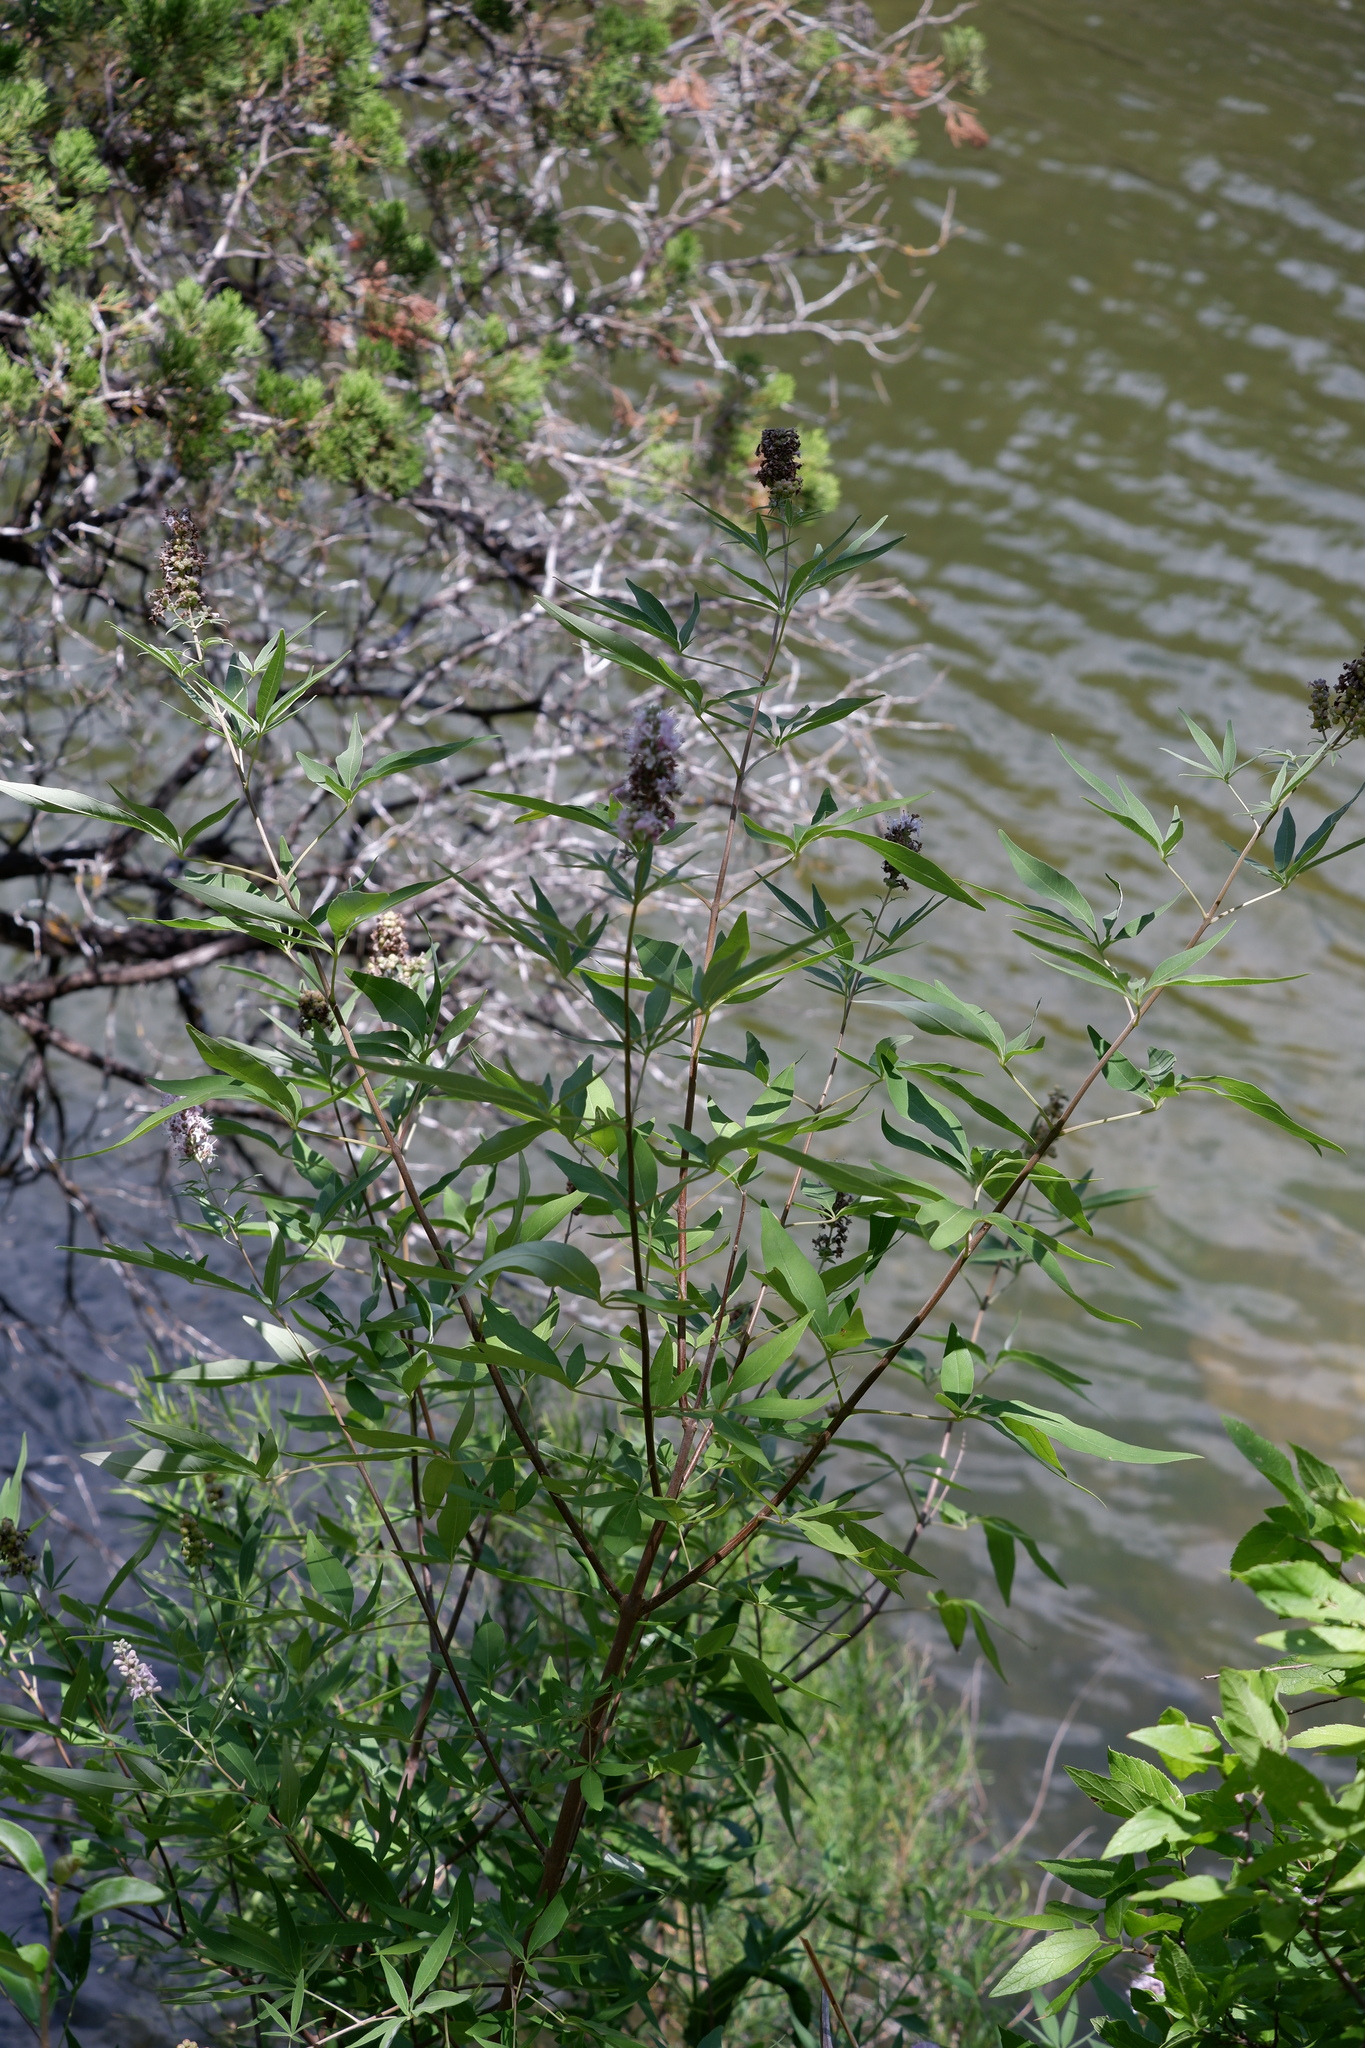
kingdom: Plantae
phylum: Tracheophyta
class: Magnoliopsida
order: Lamiales
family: Lamiaceae
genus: Vitex
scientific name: Vitex agnus-castus
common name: Chasteberry
